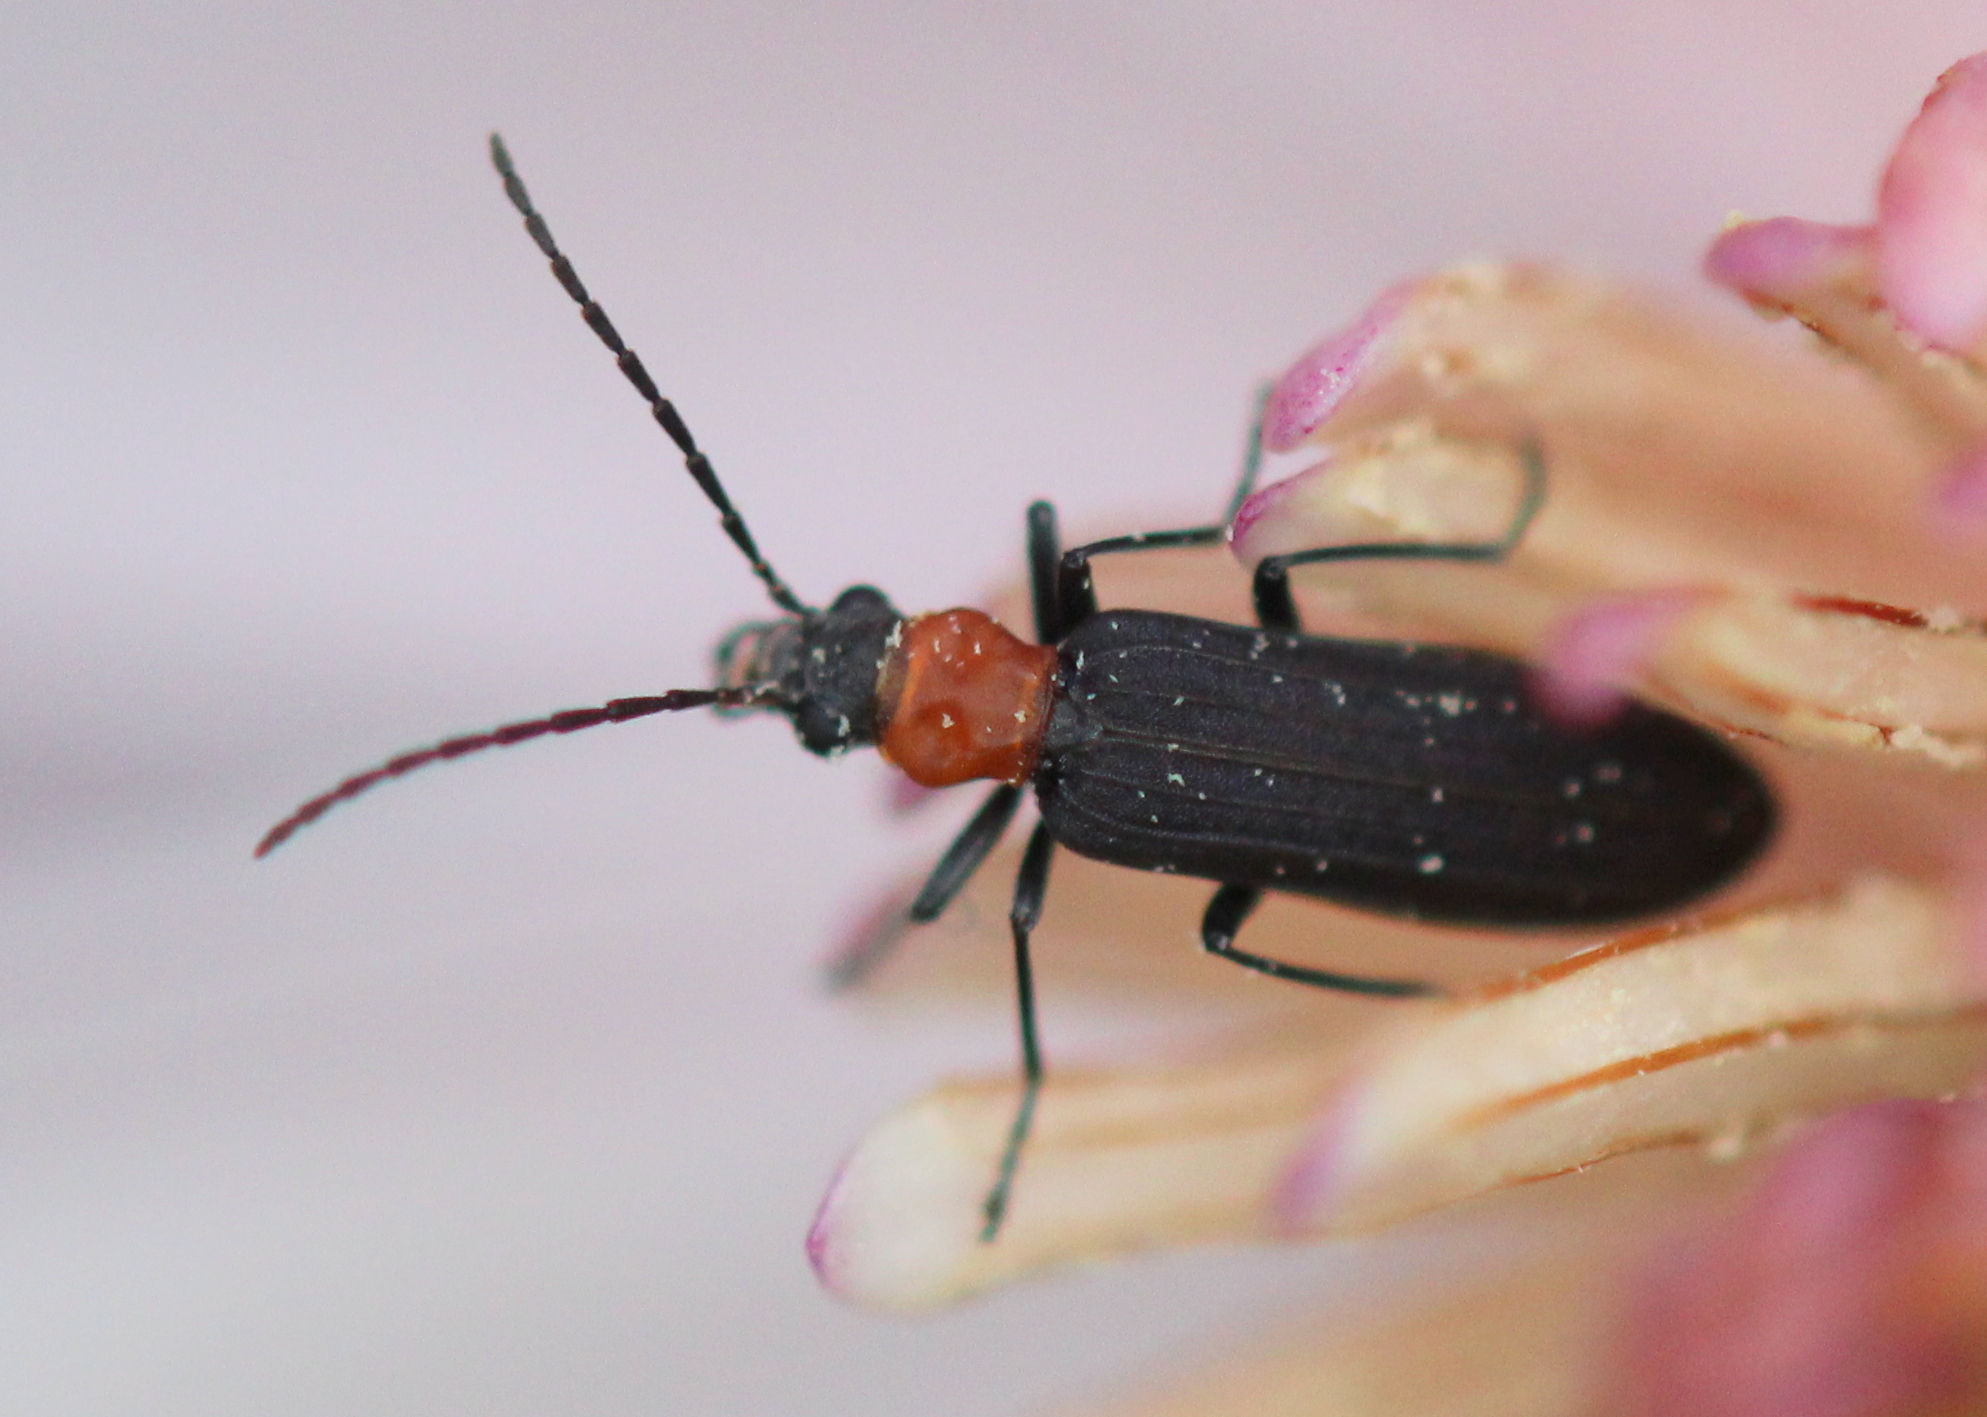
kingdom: Animalia
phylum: Arthropoda
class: Insecta
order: Coleoptera
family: Oedemeridae
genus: Ischnomera
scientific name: Ischnomera
